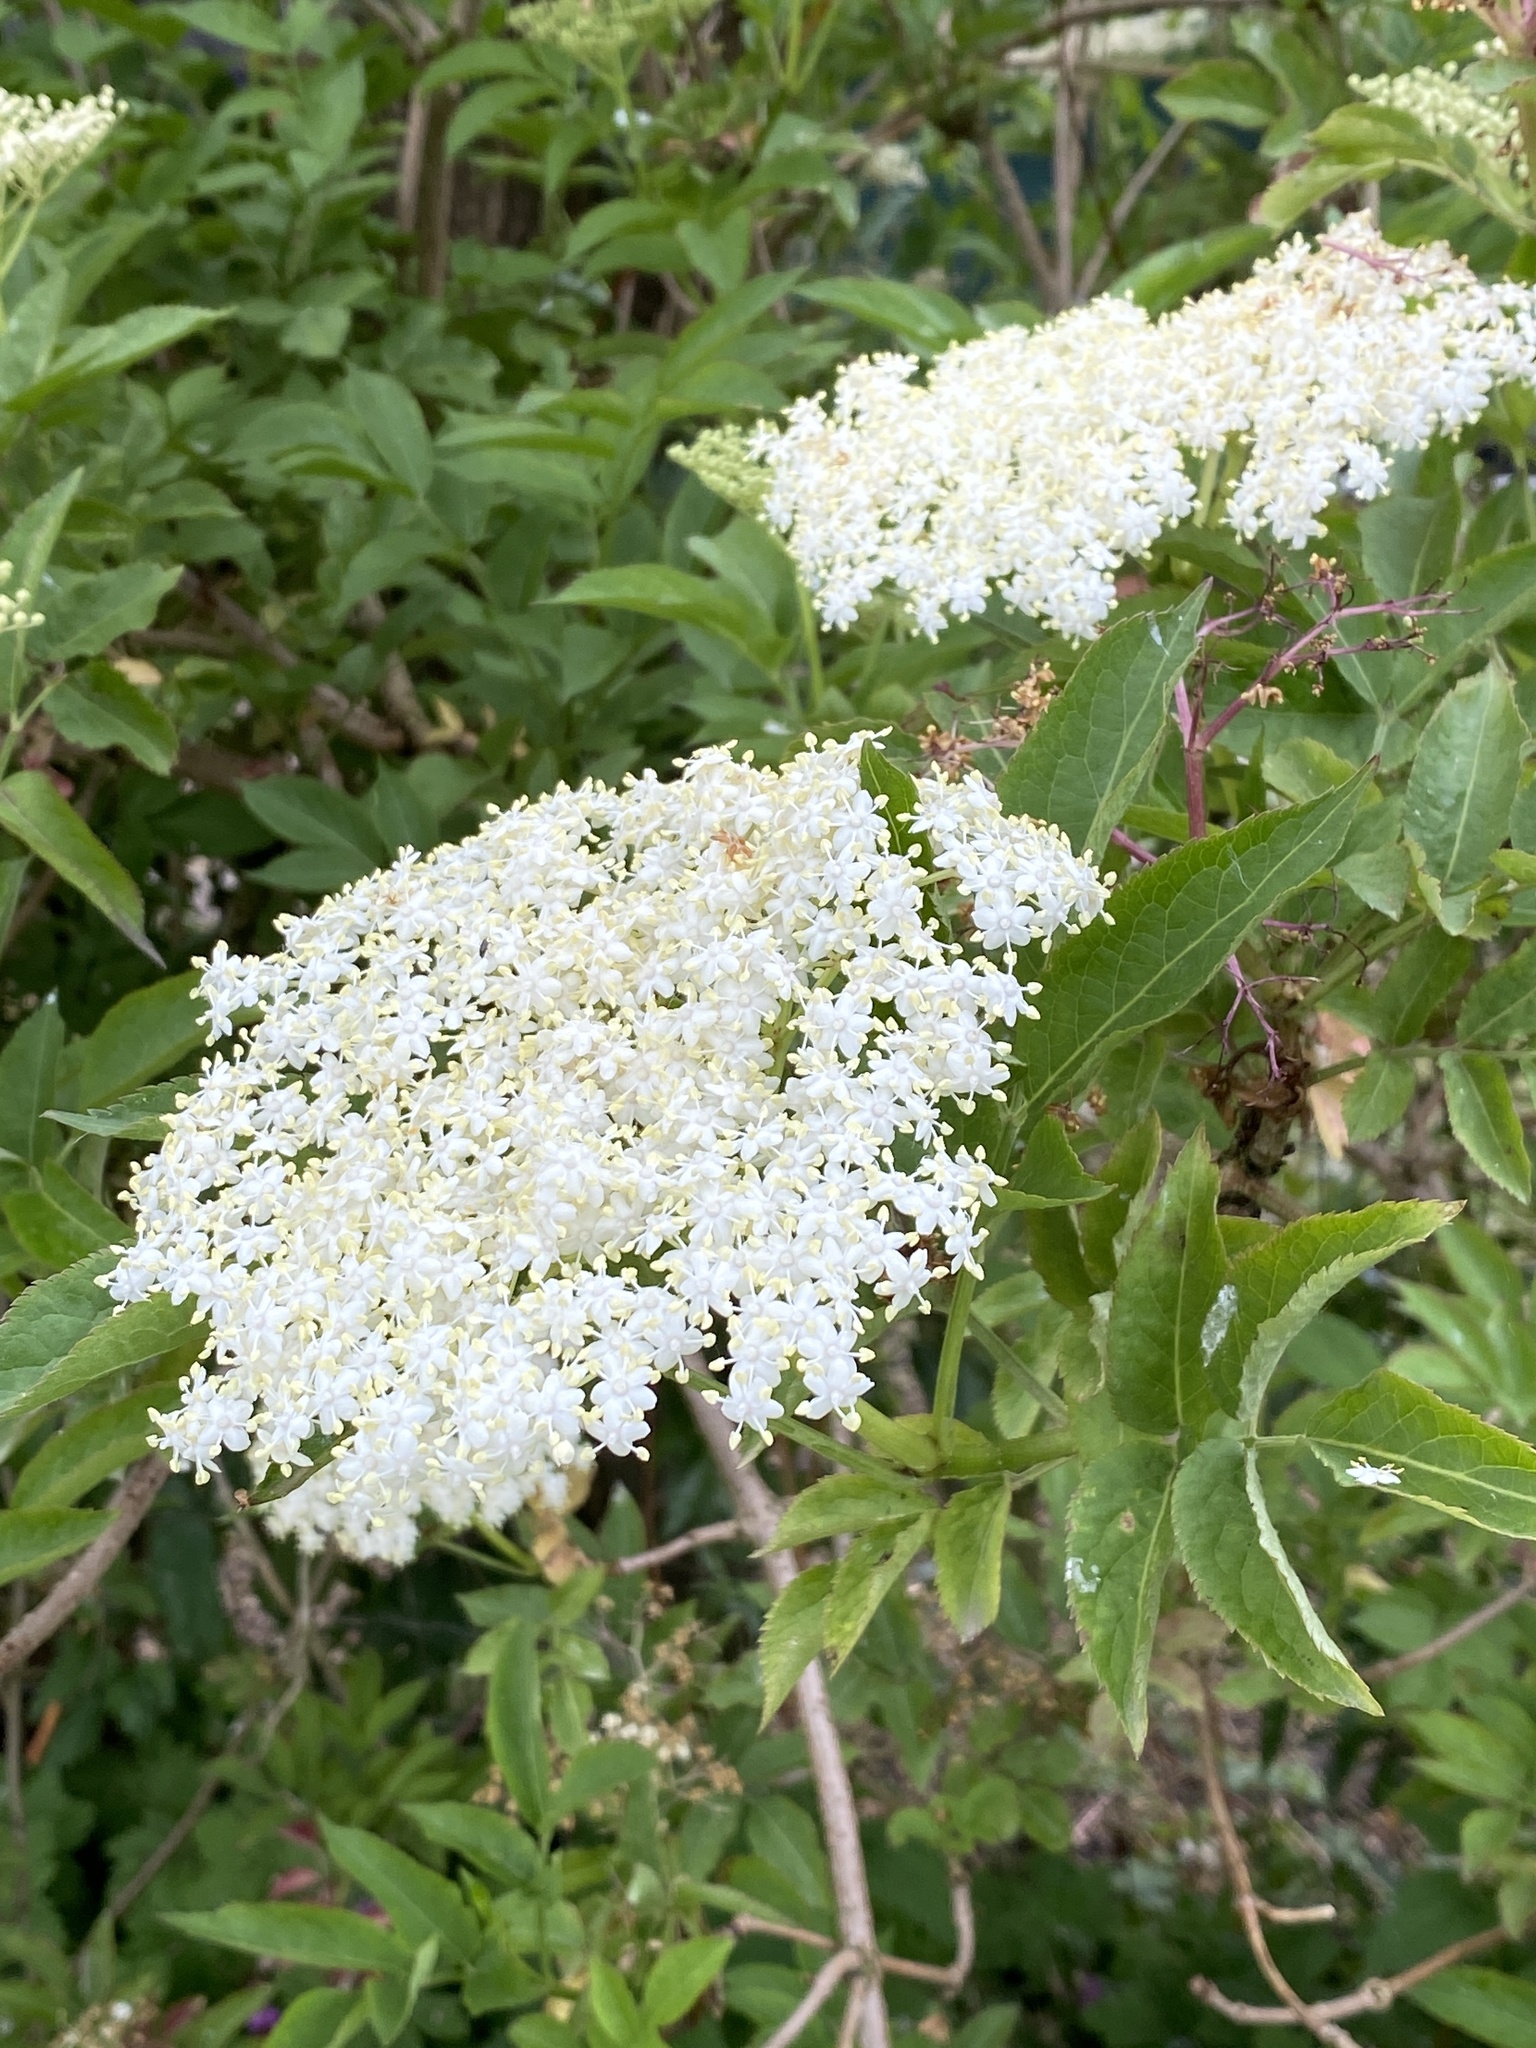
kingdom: Plantae
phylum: Tracheophyta
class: Magnoliopsida
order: Dipsacales
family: Viburnaceae
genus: Sambucus
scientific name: Sambucus nigra
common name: Elder
